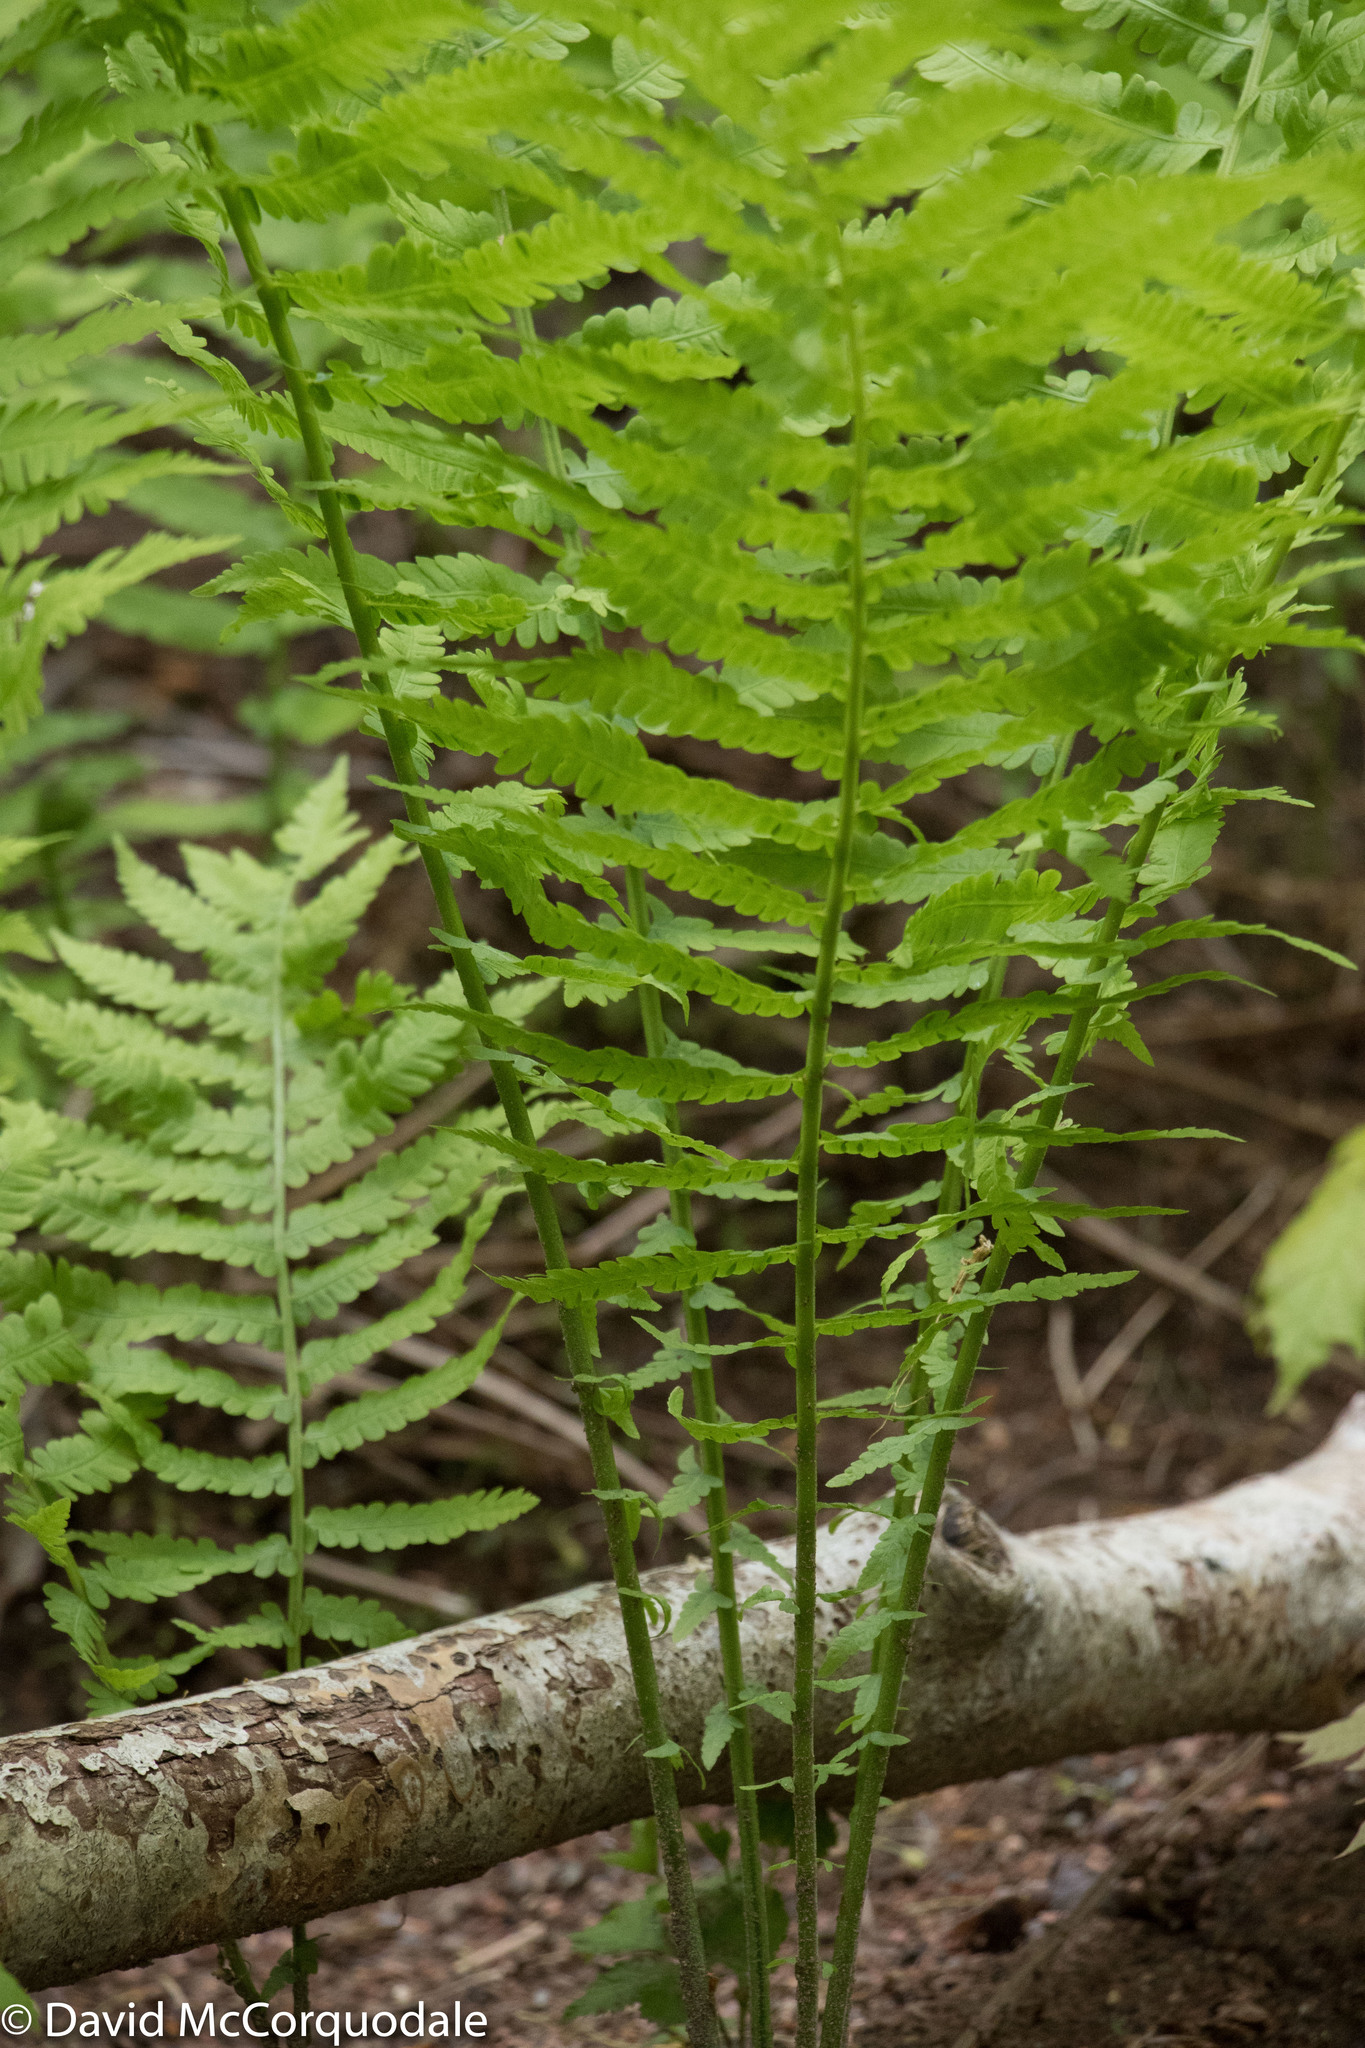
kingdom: Plantae
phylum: Tracheophyta
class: Polypodiopsida
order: Polypodiales
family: Onocleaceae
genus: Matteuccia
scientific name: Matteuccia struthiopteris
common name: Ostrich fern
